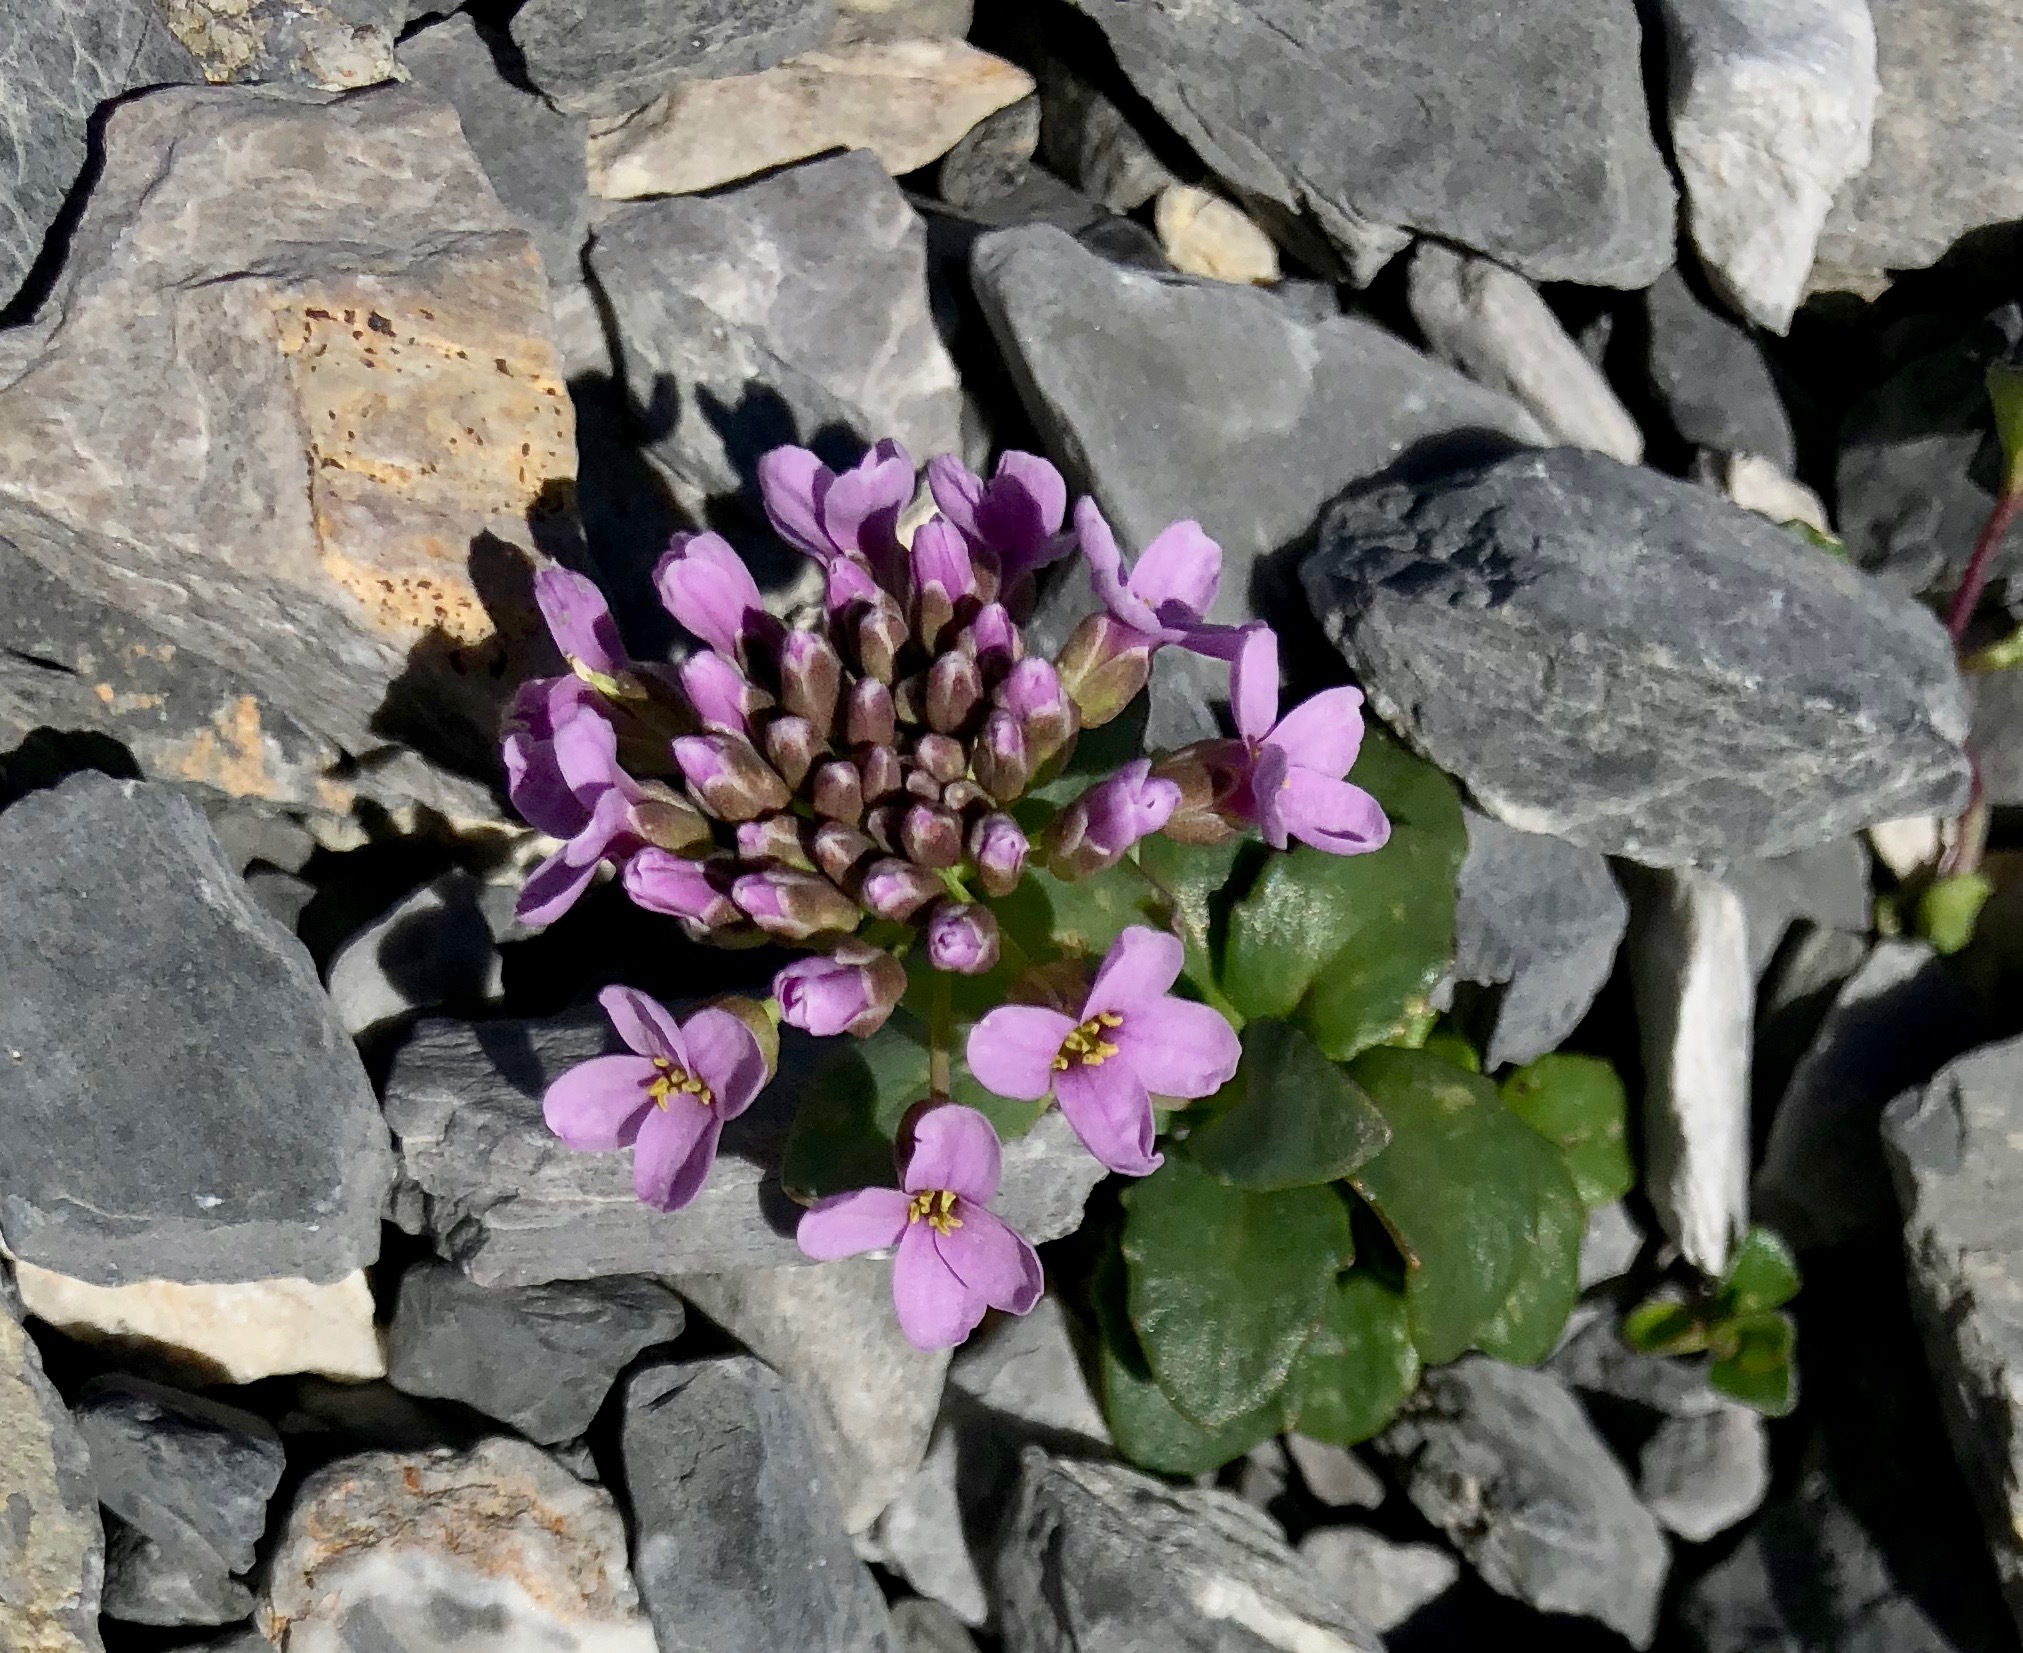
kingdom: Plantae
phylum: Tracheophyta
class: Magnoliopsida
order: Brassicales
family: Brassicaceae
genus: Noccaea
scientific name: Noccaea rotundifolia
